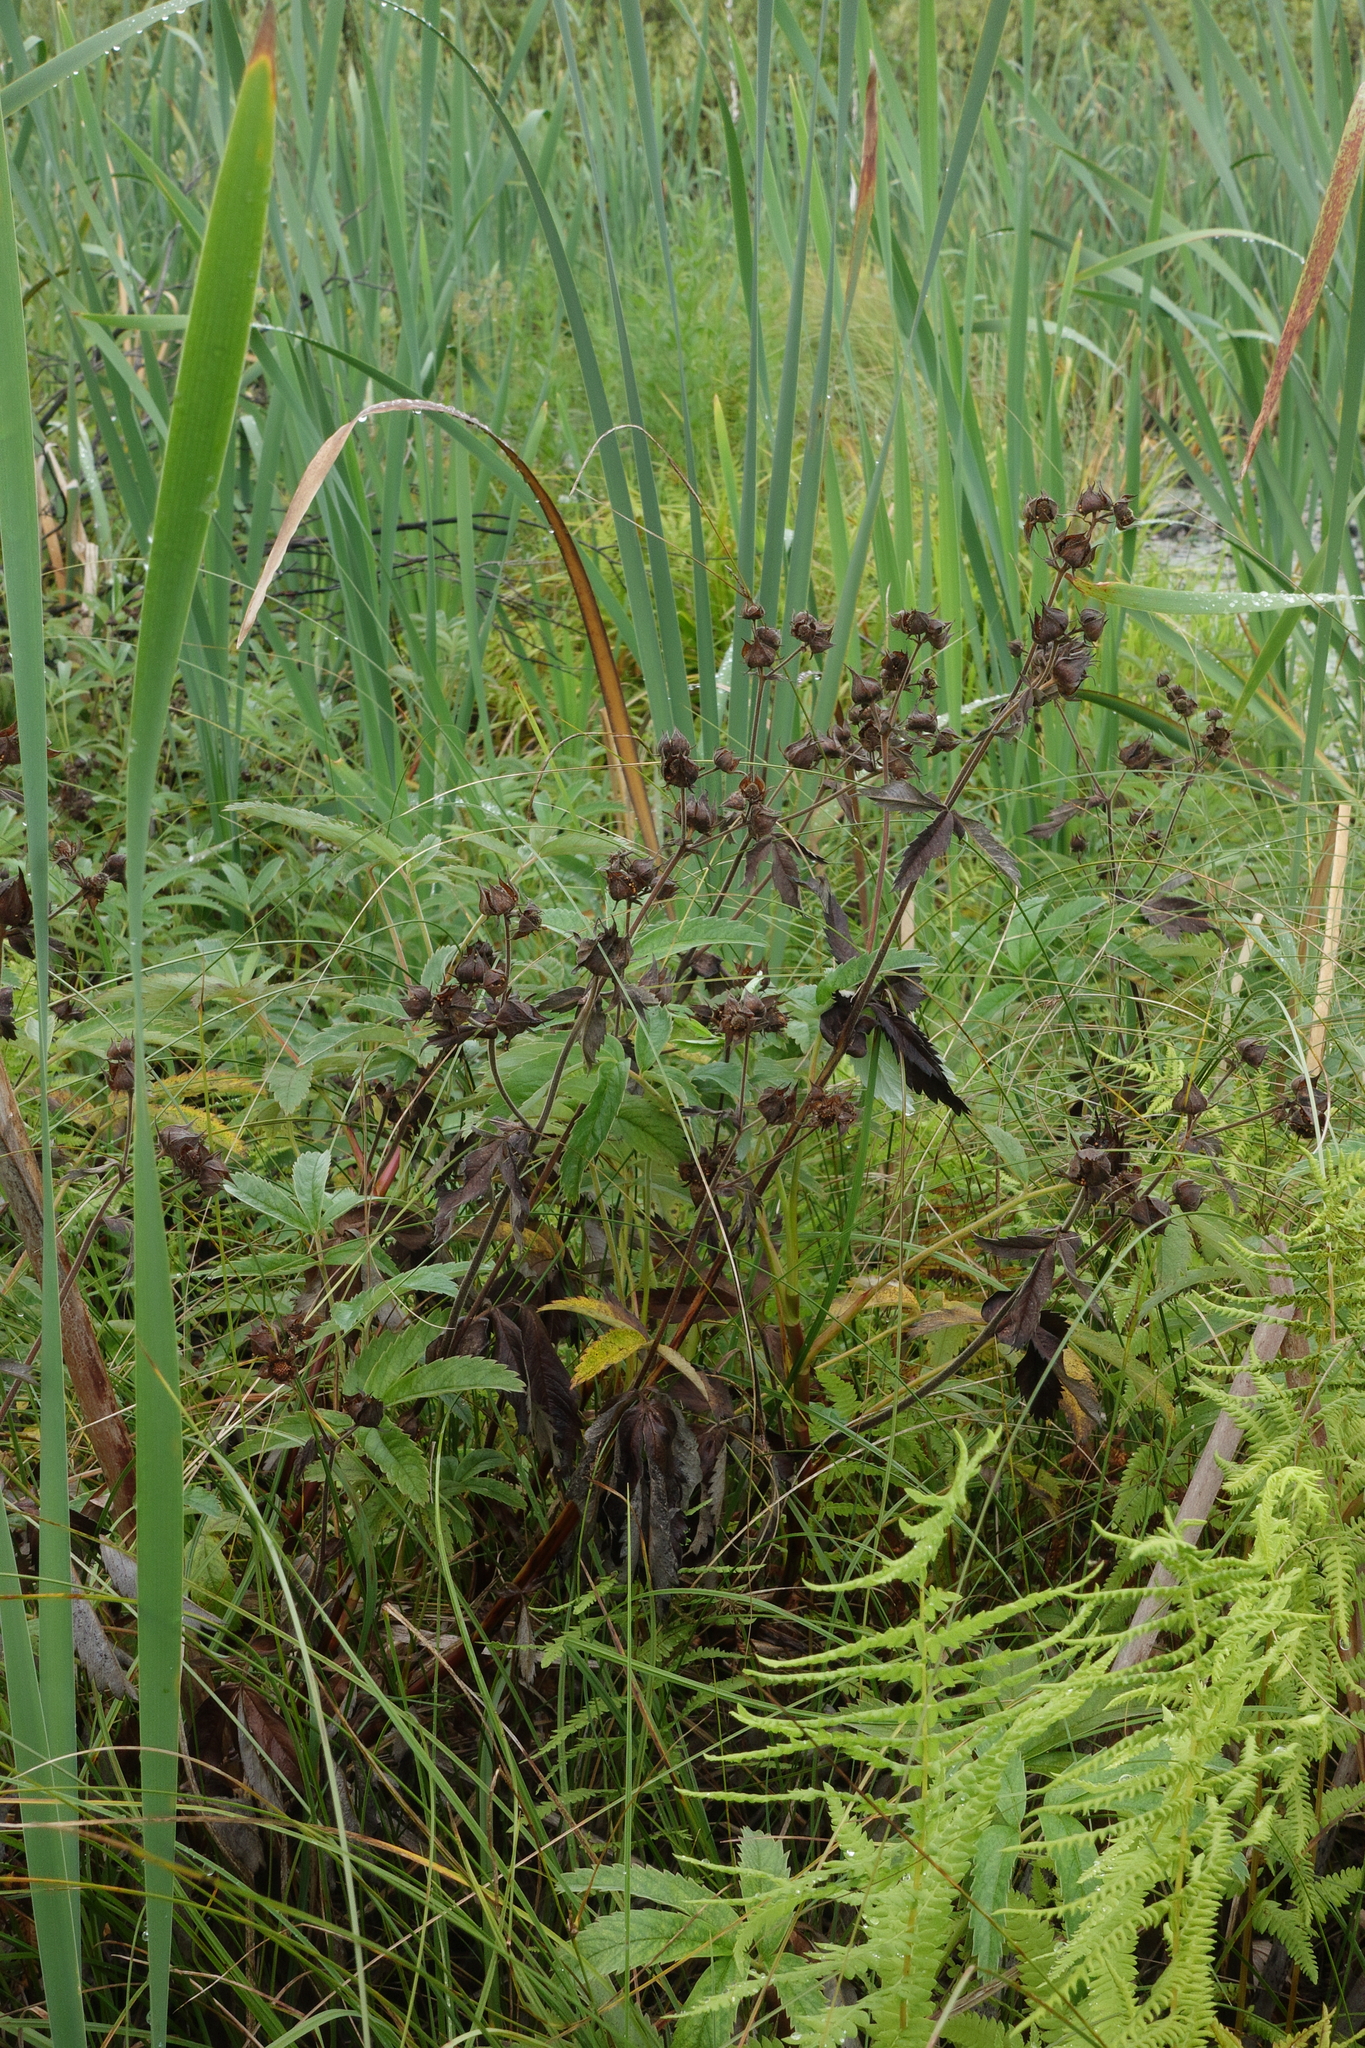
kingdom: Plantae
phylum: Tracheophyta
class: Magnoliopsida
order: Rosales
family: Rosaceae
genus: Comarum
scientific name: Comarum palustre
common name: Marsh cinquefoil
